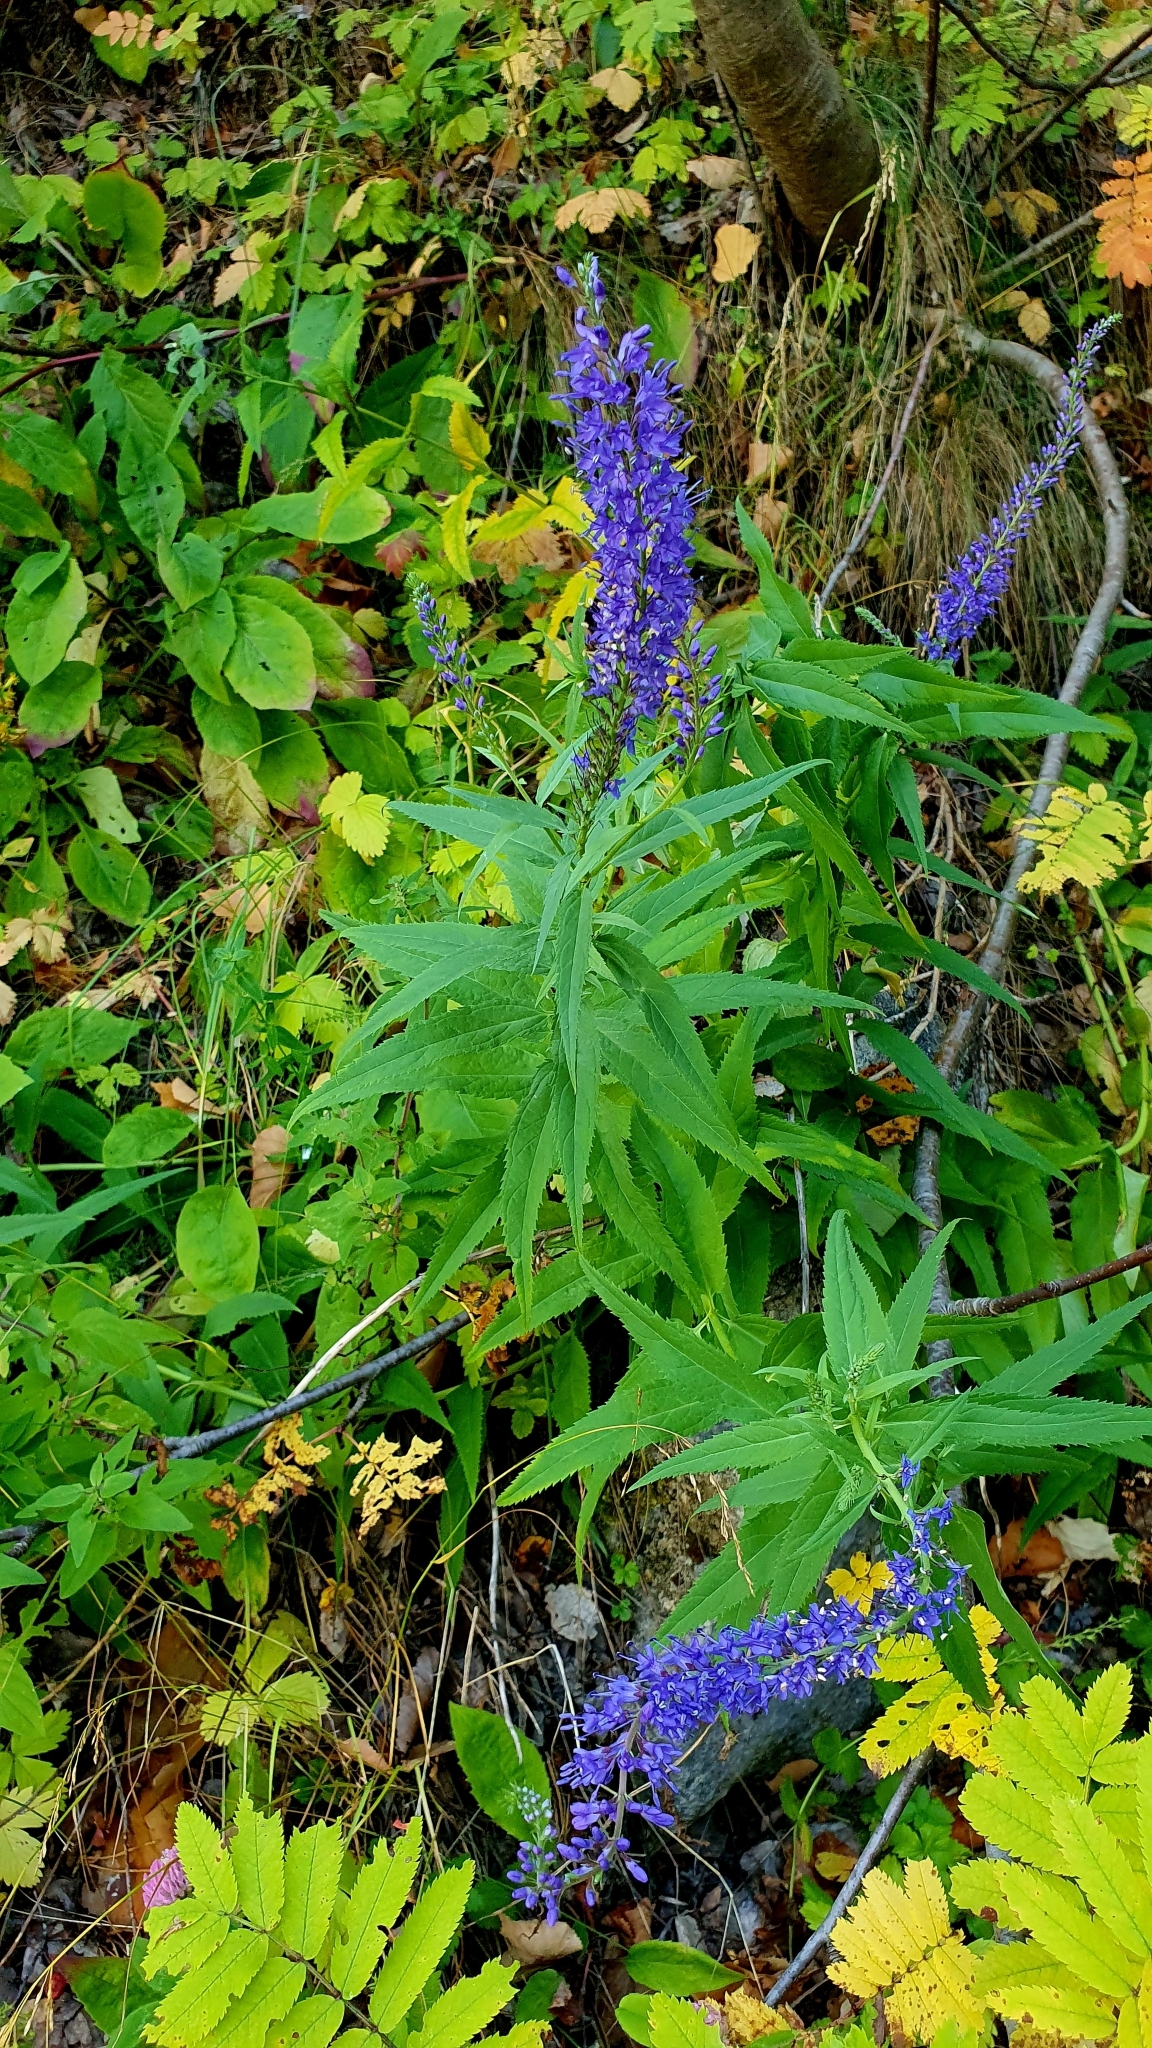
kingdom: Plantae
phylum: Tracheophyta
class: Magnoliopsida
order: Lamiales
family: Plantaginaceae
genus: Veronica
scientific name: Veronica longifolia
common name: Garden speedwell
